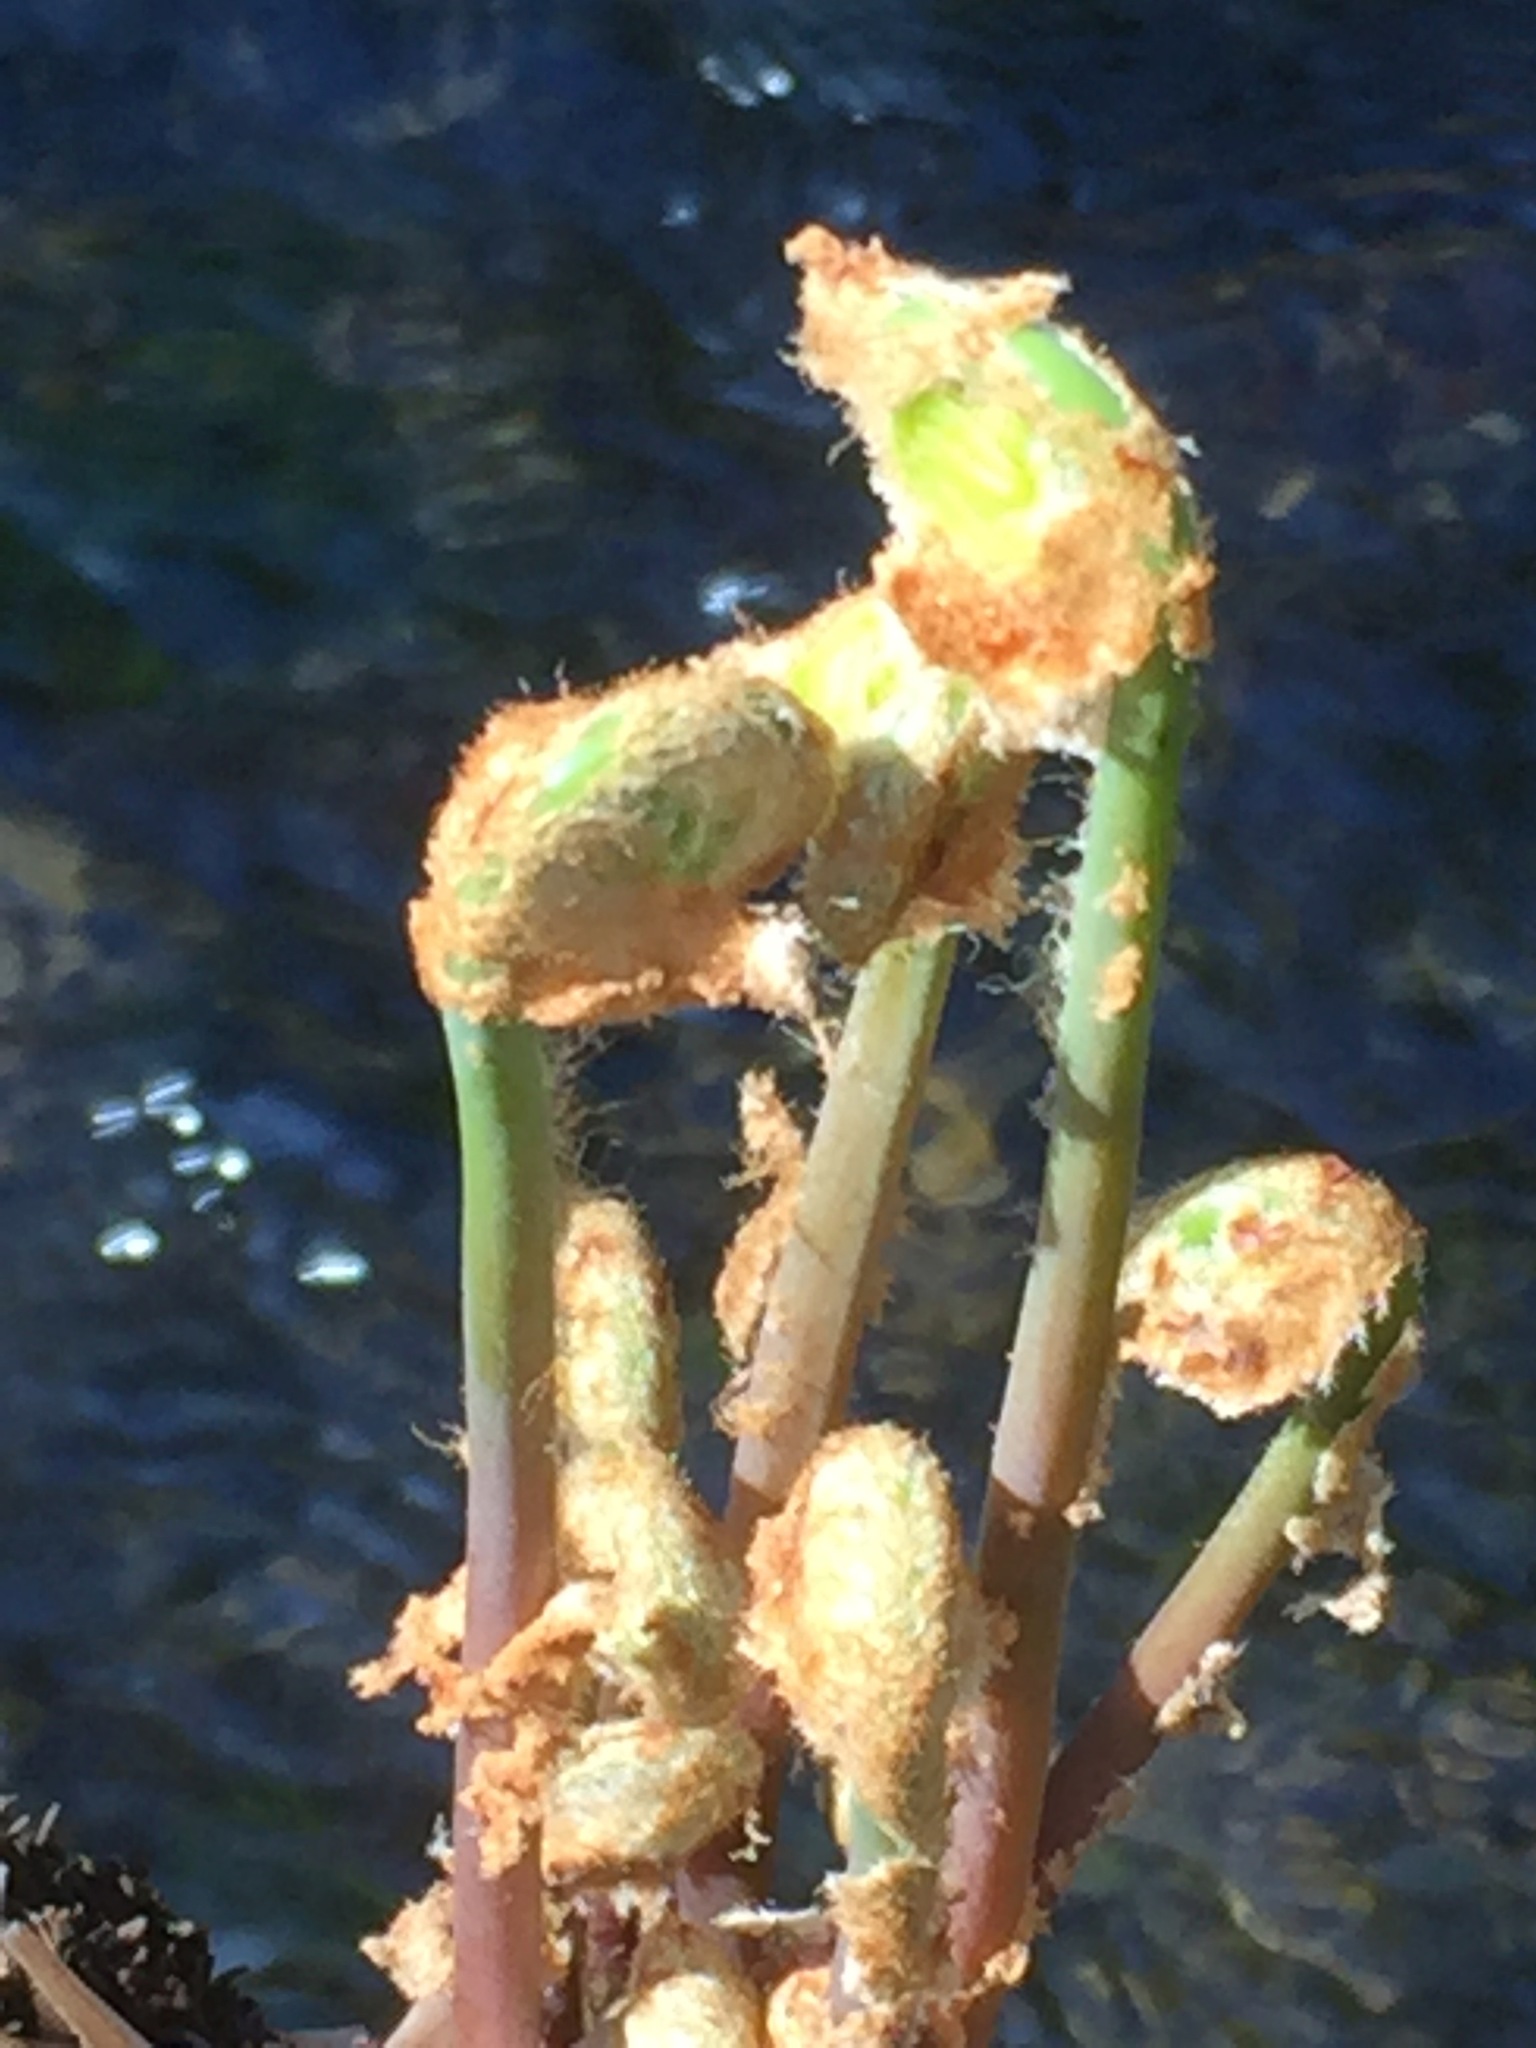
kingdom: Plantae
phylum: Tracheophyta
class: Polypodiopsida
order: Osmundales
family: Osmundaceae
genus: Claytosmunda
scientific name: Claytosmunda claytoniana
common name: Clayton's fern
